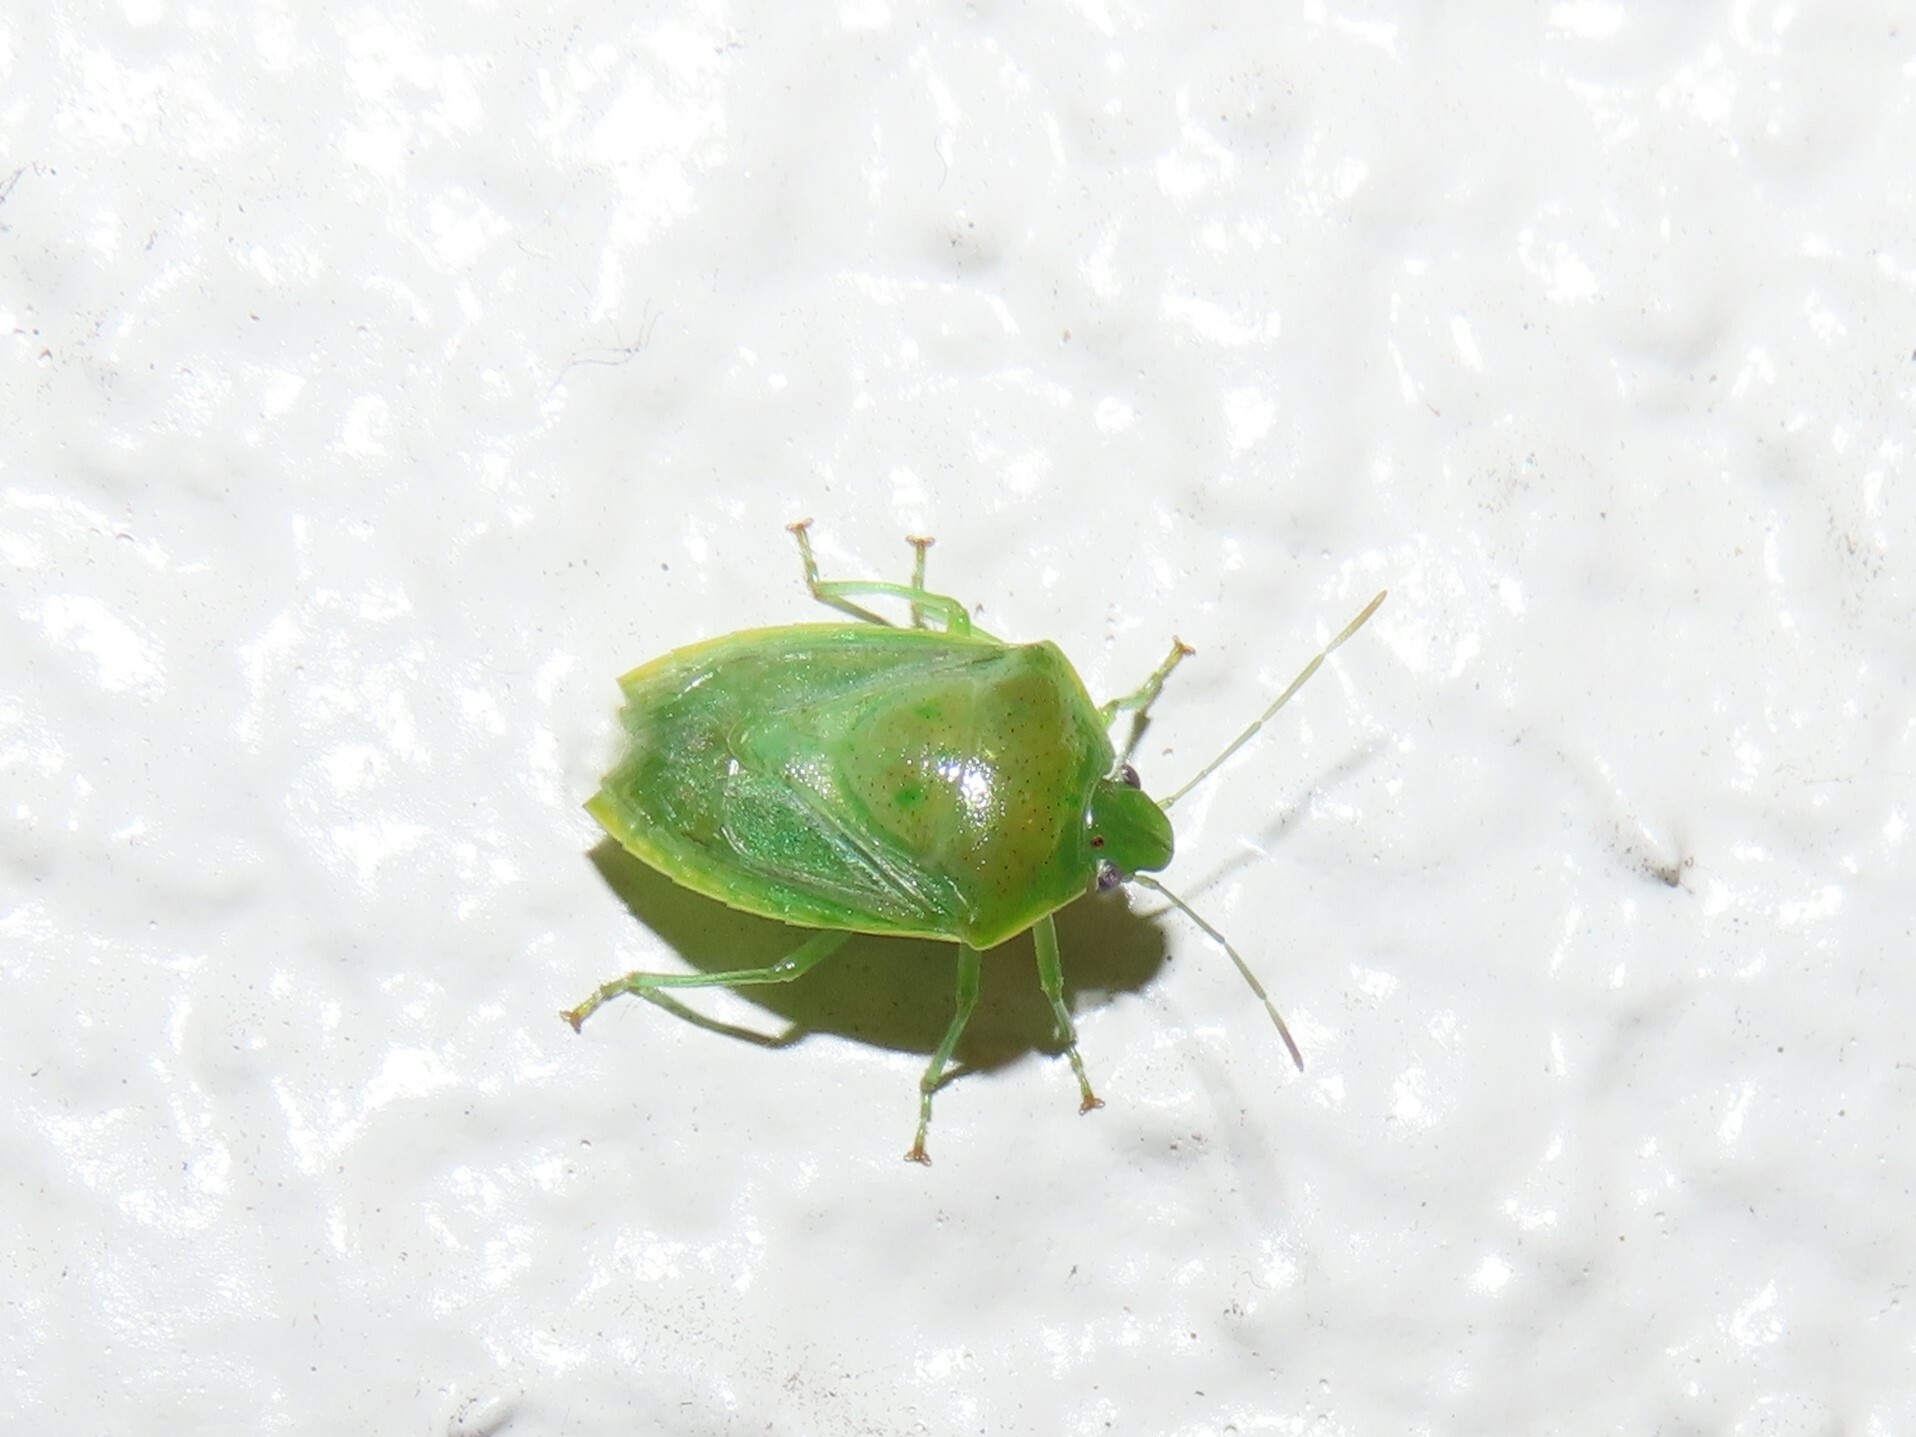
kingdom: Animalia
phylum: Arthropoda
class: Insecta
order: Hemiptera
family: Pentatomidae
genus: Banasa
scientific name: Banasa herbacea
